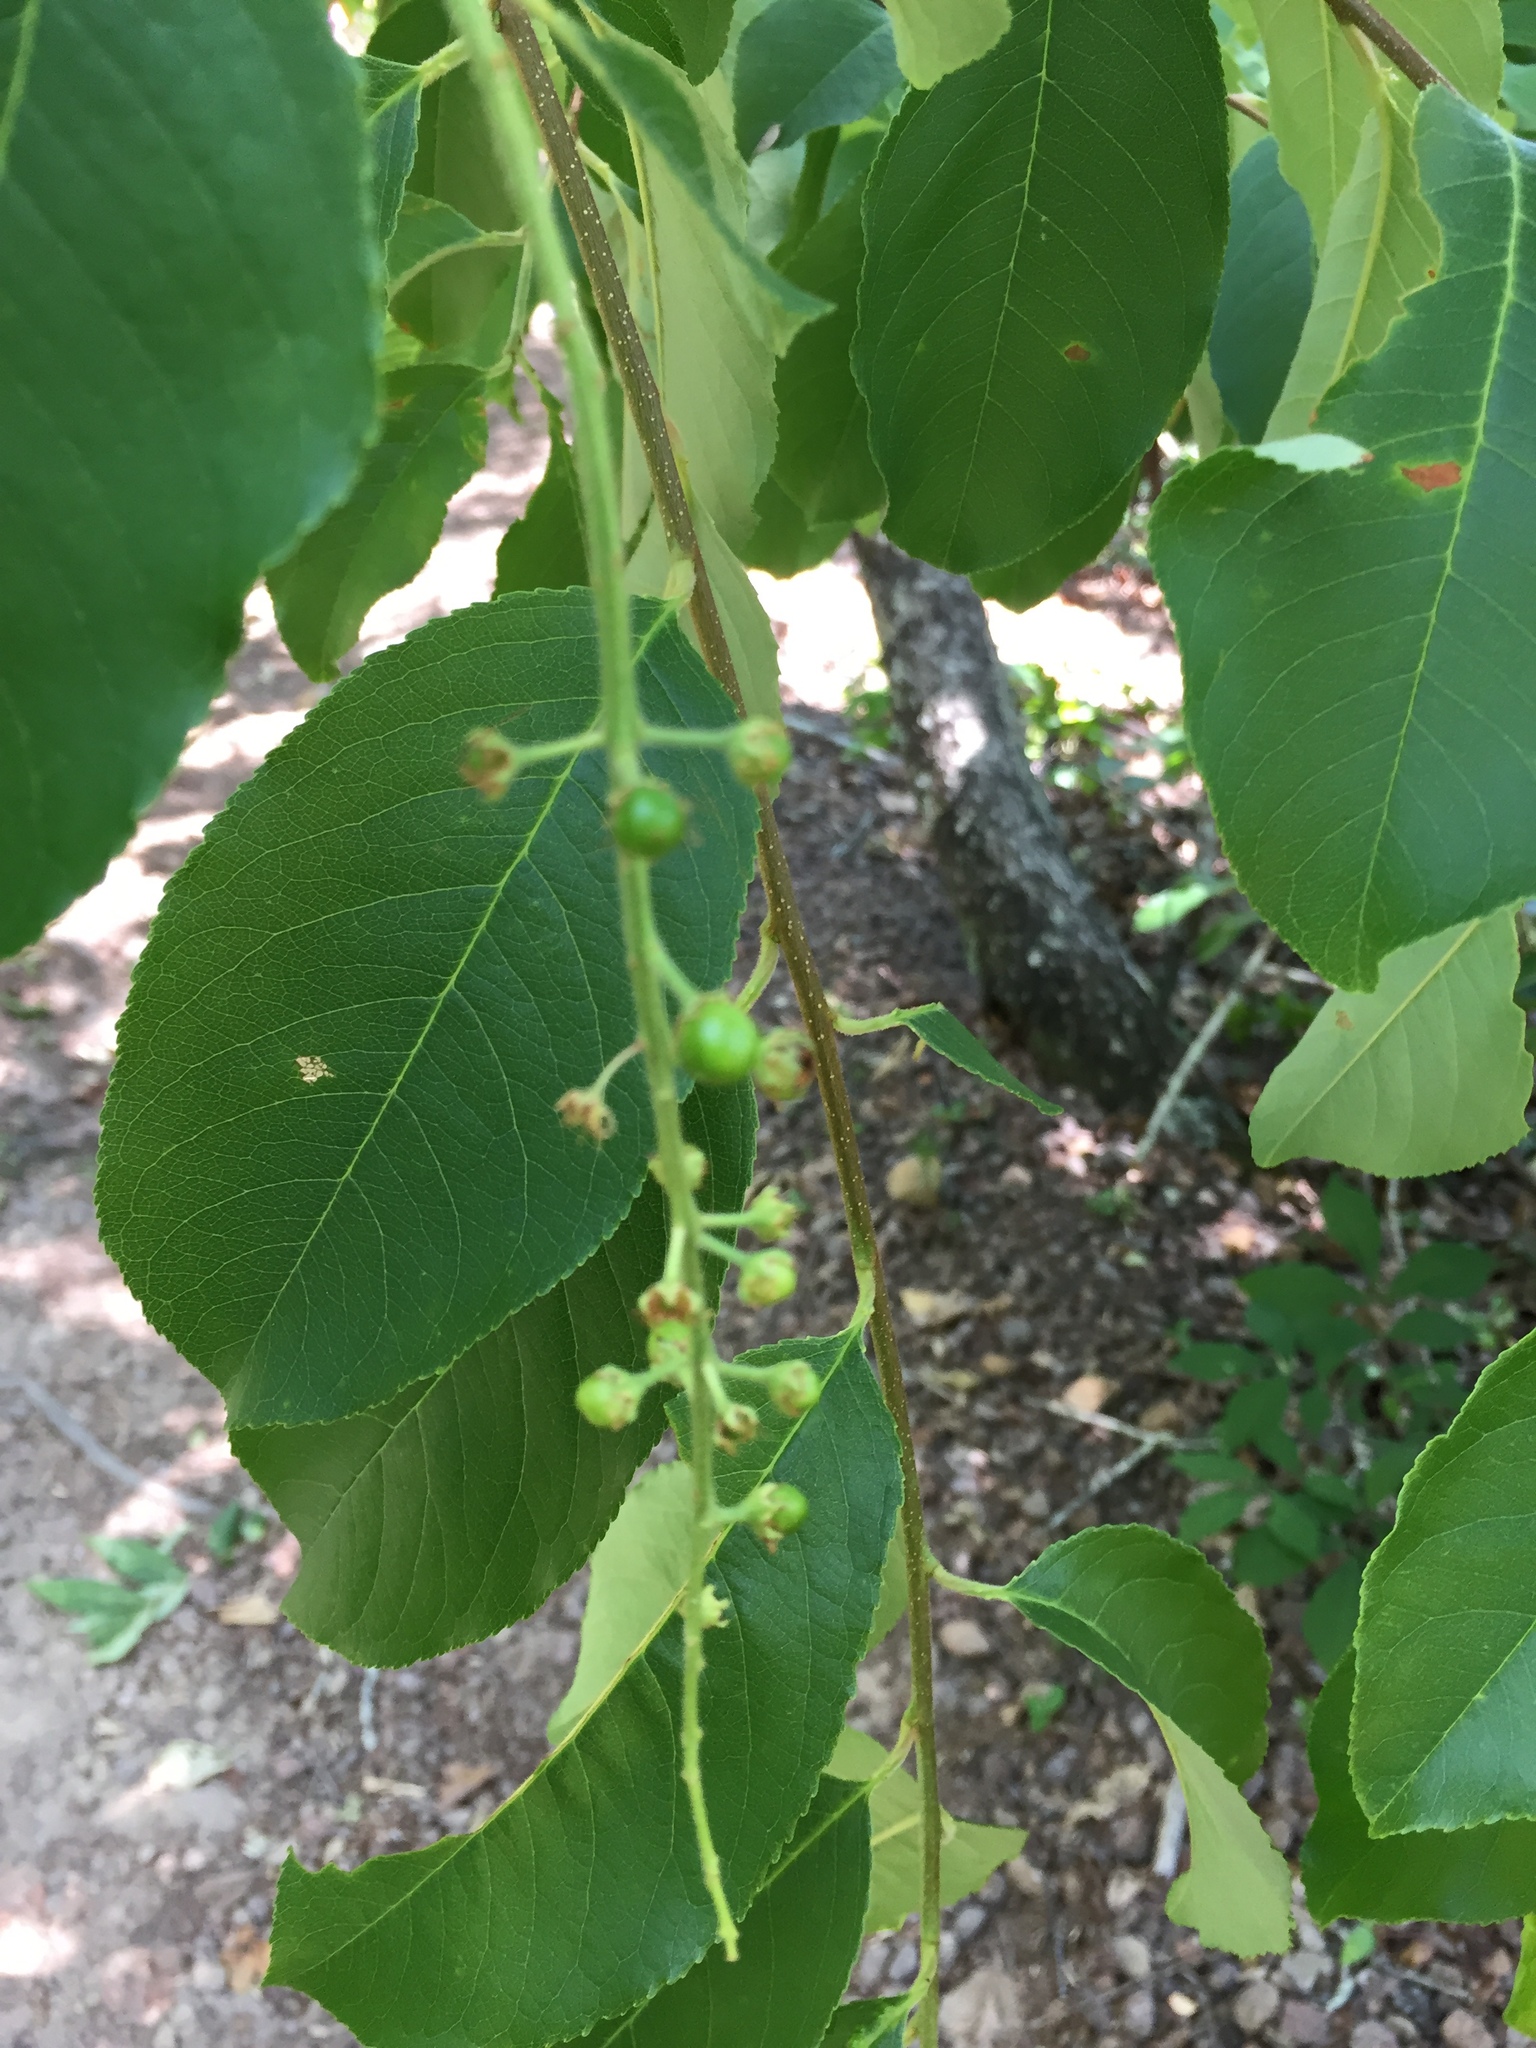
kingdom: Plantae
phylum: Tracheophyta
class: Magnoliopsida
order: Rosales
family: Rosaceae
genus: Prunus
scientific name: Prunus serotina
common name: Black cherry
